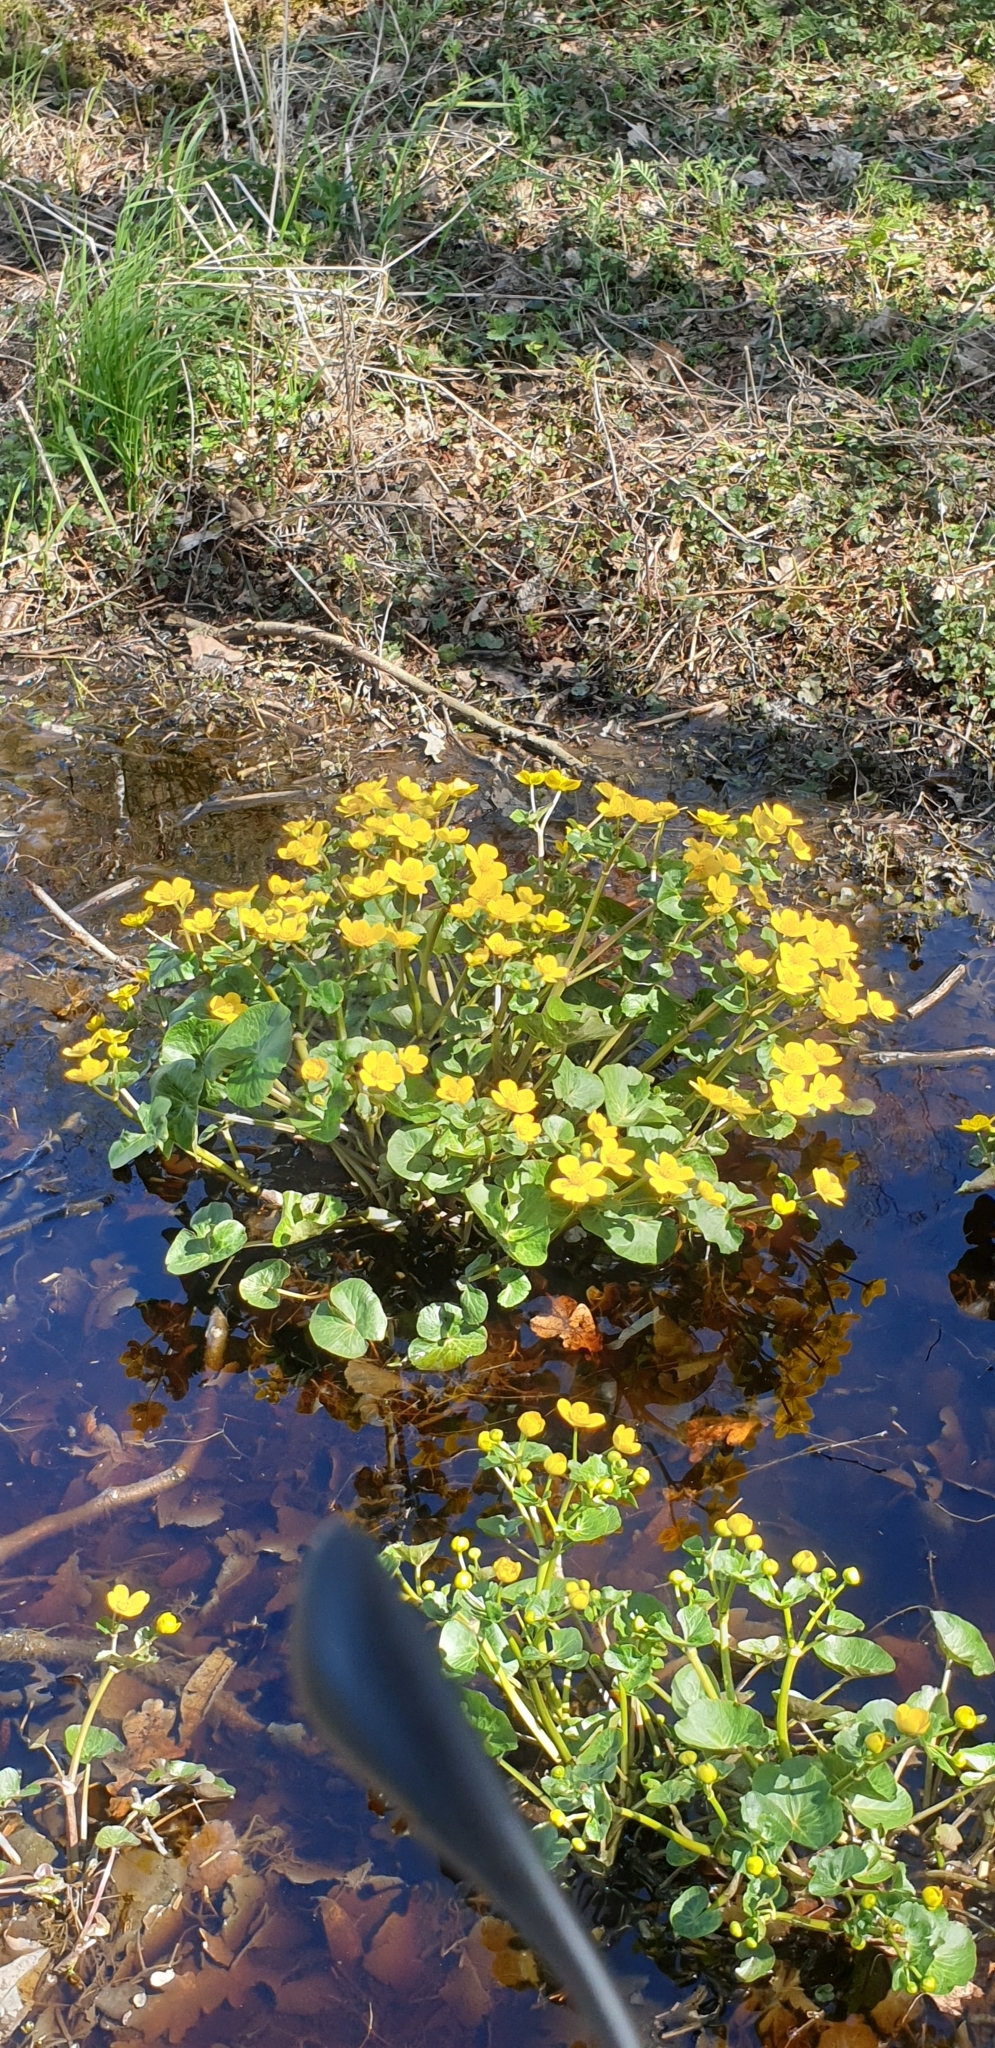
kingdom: Plantae
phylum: Tracheophyta
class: Magnoliopsida
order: Ranunculales
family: Ranunculaceae
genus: Caltha
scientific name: Caltha palustris
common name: Marsh marigold
